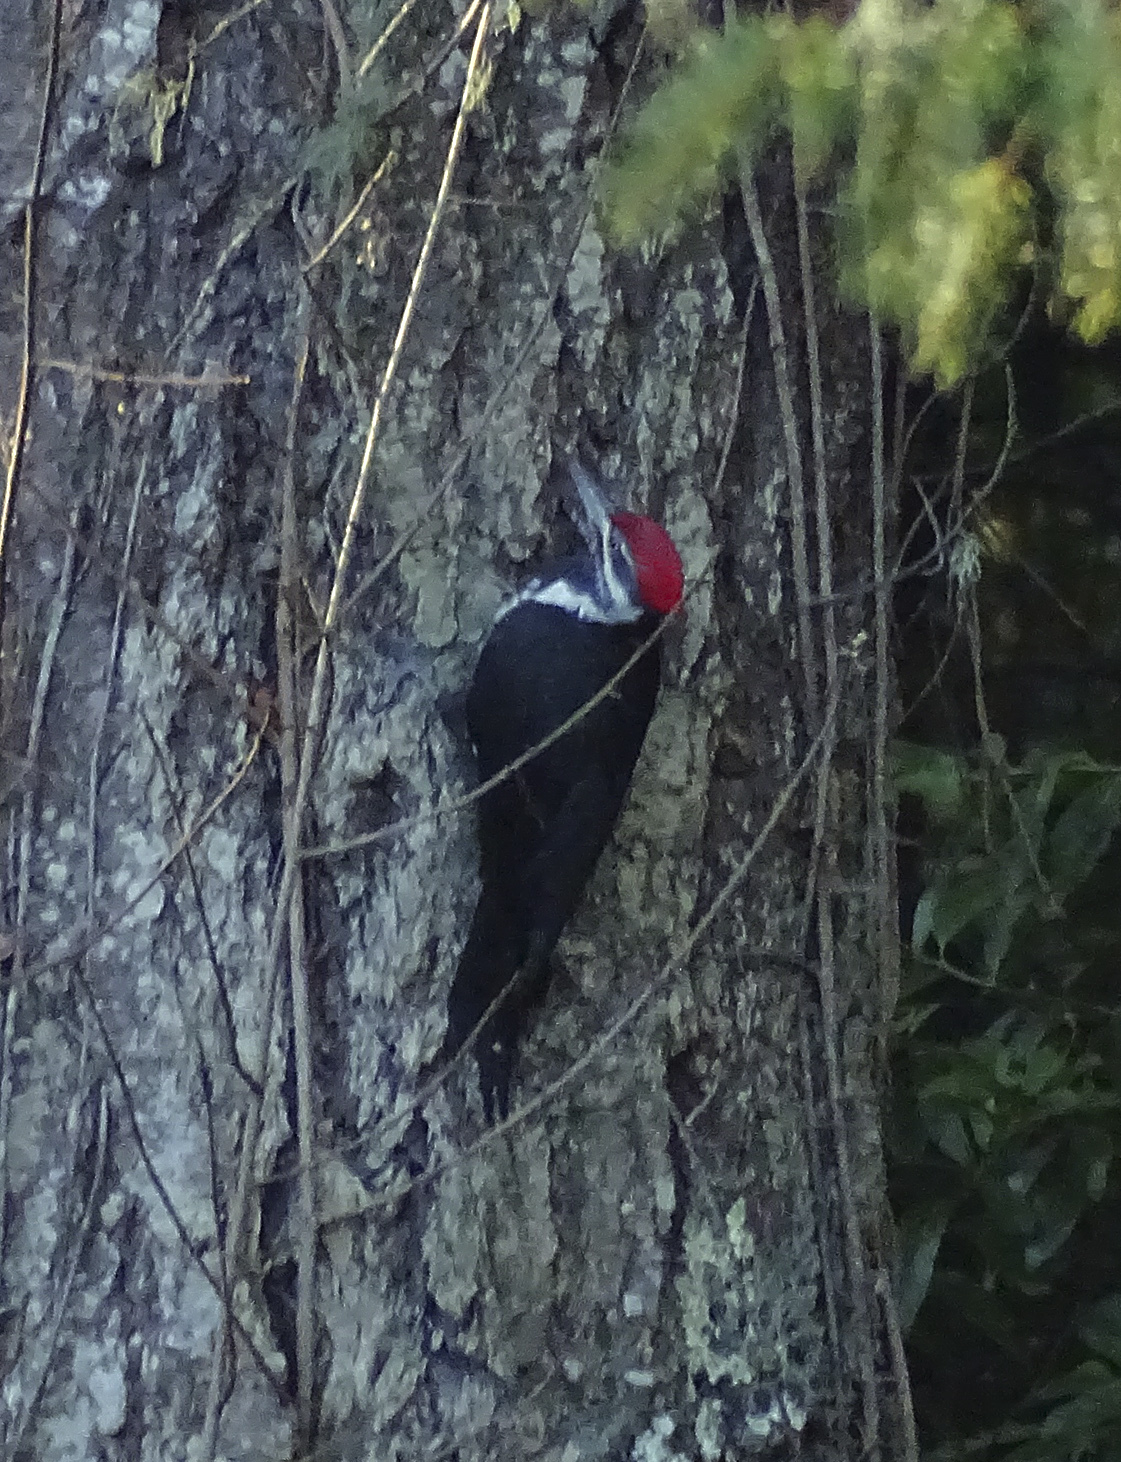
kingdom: Animalia
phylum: Chordata
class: Aves
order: Piciformes
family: Picidae
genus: Dryocopus
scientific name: Dryocopus pileatus
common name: Pileated woodpecker
